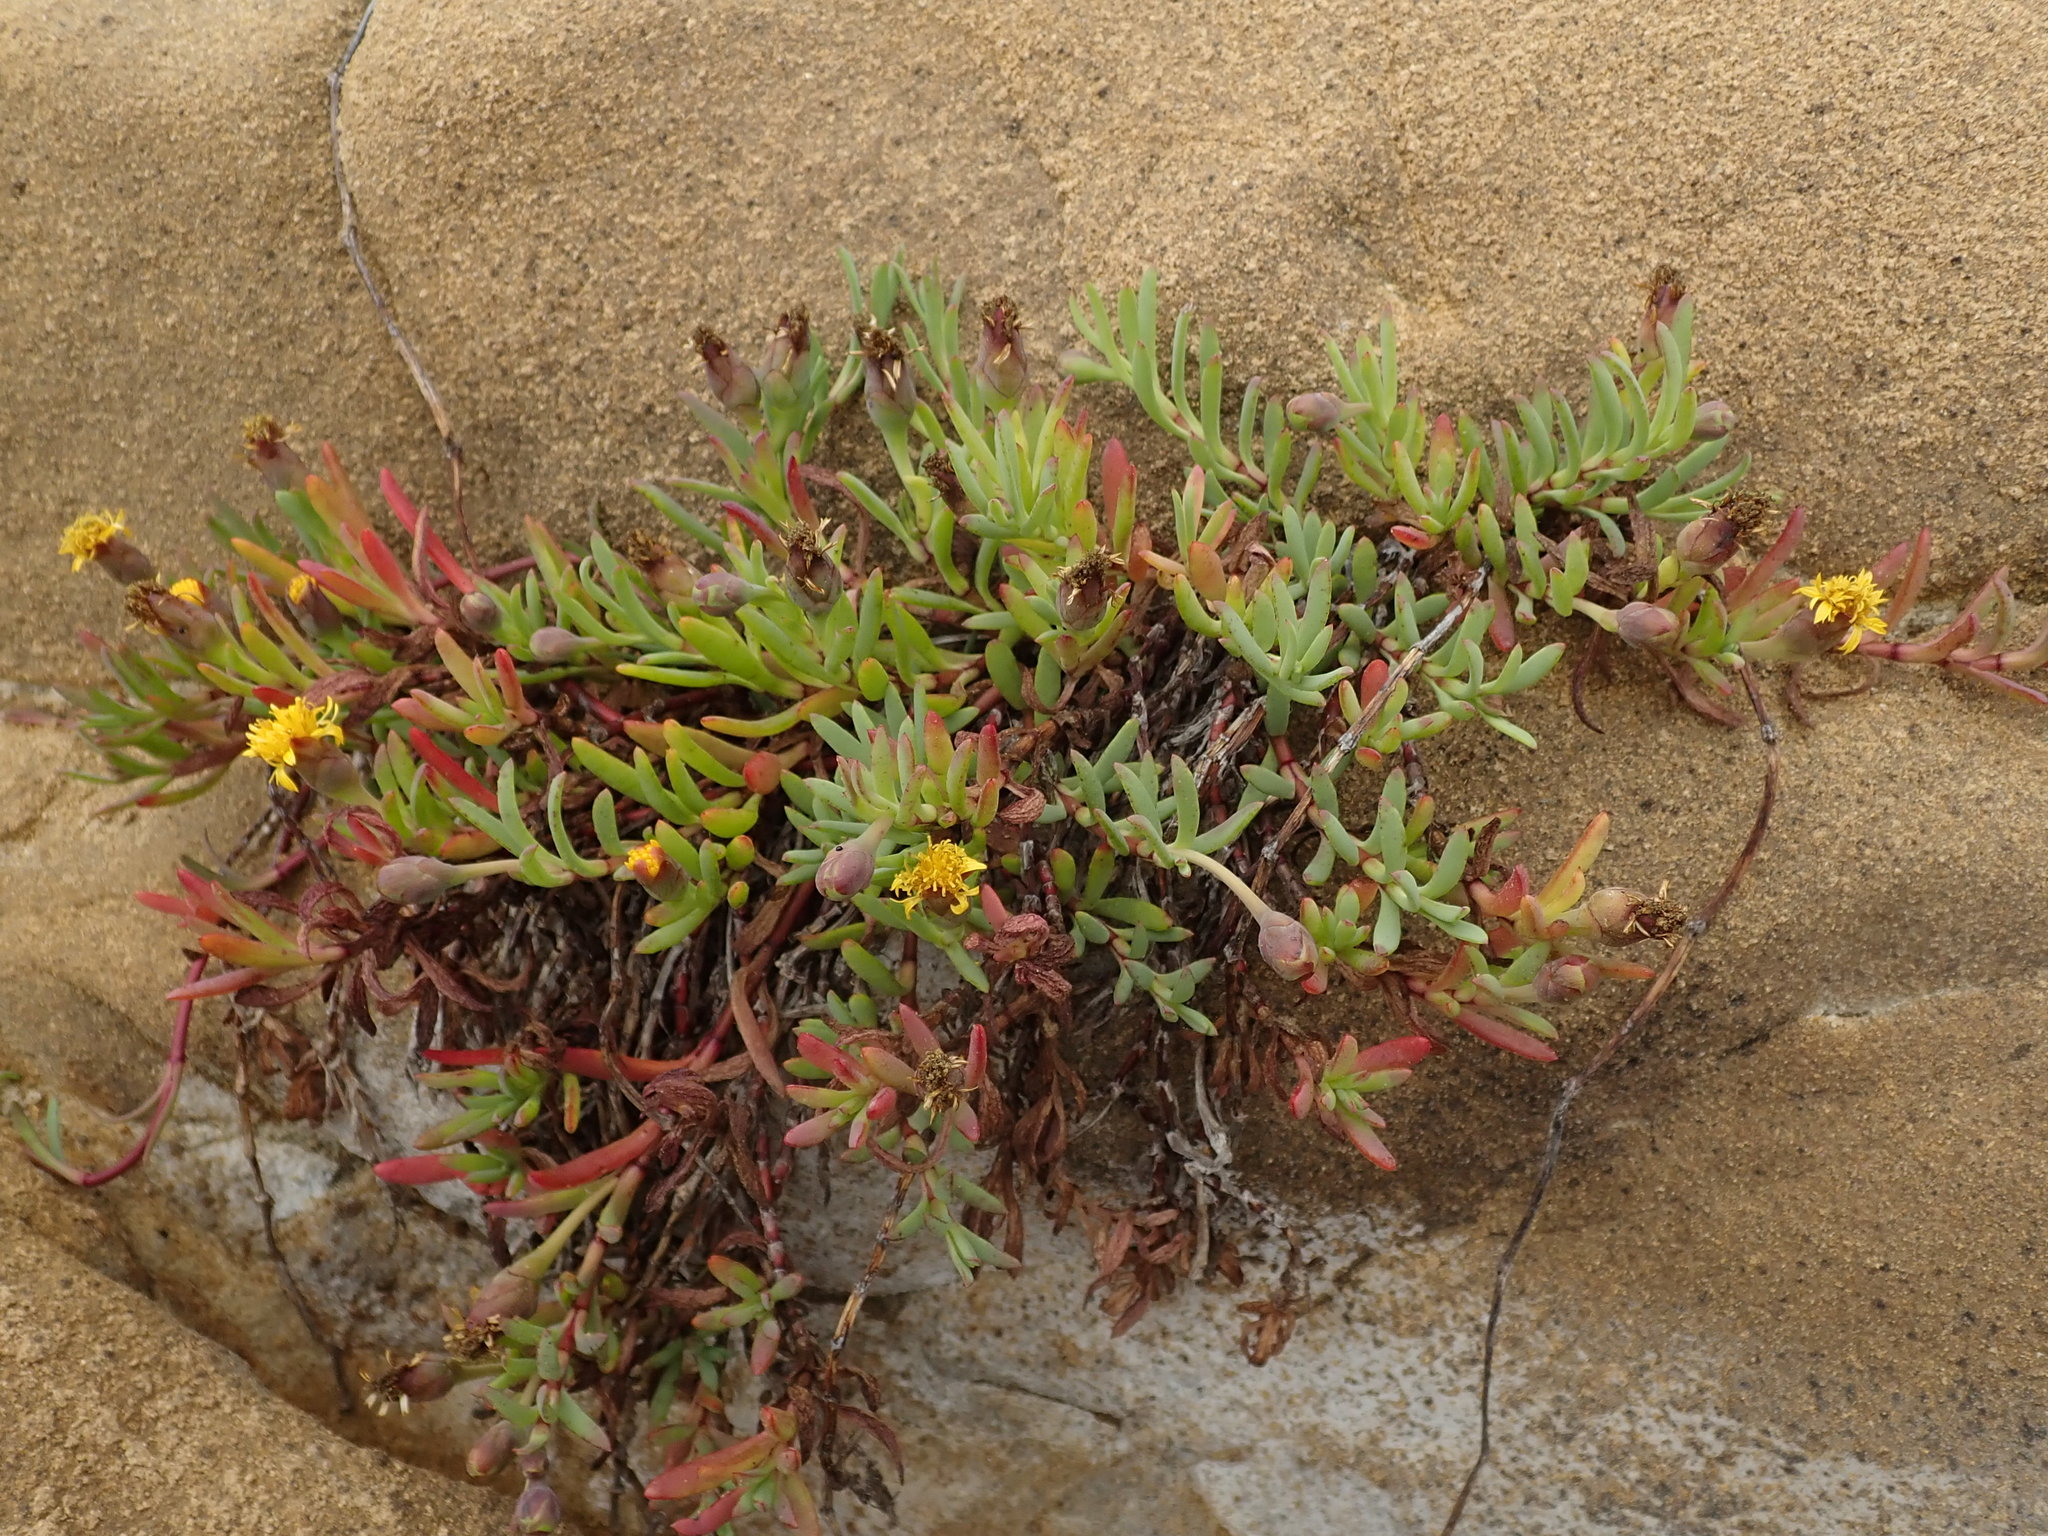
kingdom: Plantae
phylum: Tracheophyta
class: Magnoliopsida
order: Asterales
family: Asteraceae
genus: Jaumea
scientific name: Jaumea carnosa
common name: Fleshy jaumea
